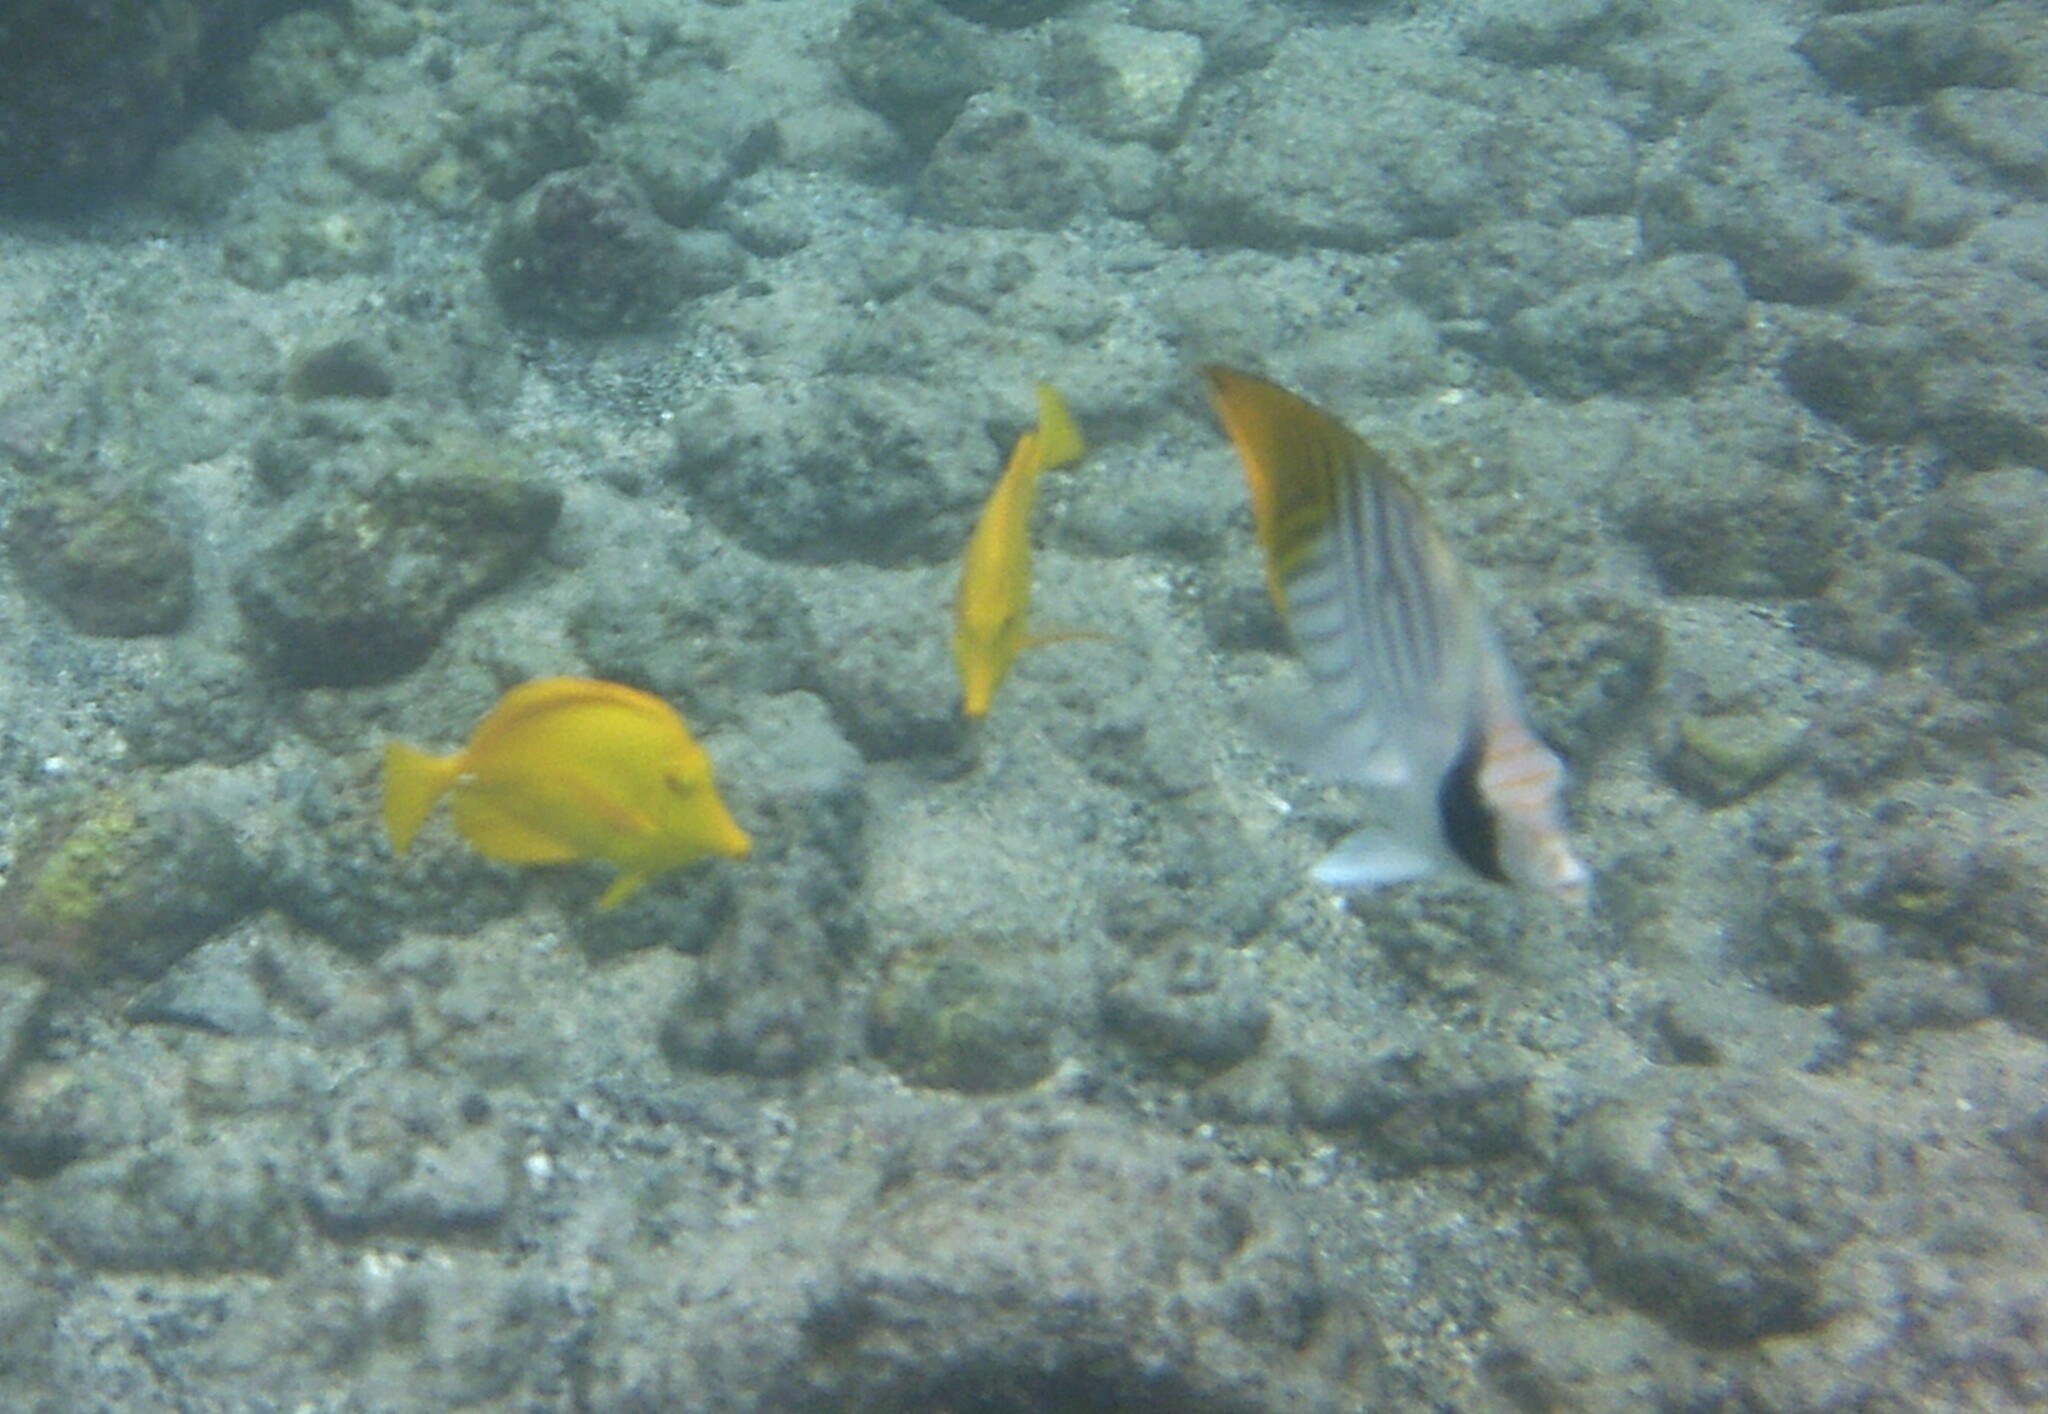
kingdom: Animalia
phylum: Chordata
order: Perciformes
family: Chaetodontidae
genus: Chaetodon
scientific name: Chaetodon auriga
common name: Threadfin butterflyfish
